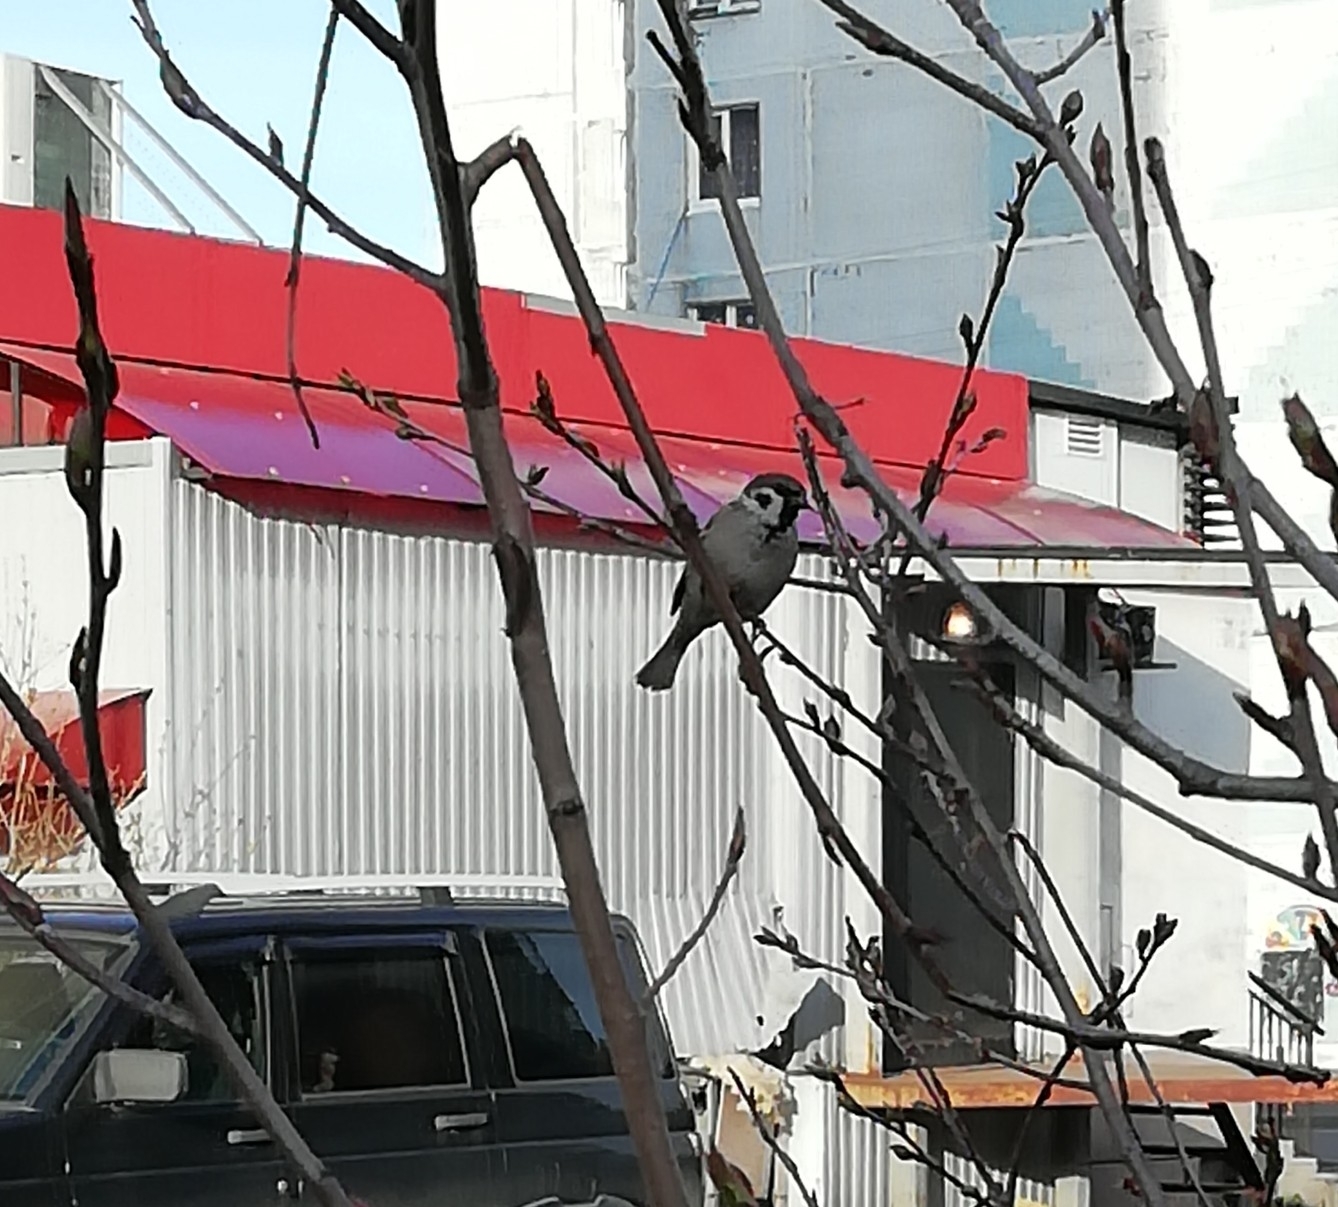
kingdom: Animalia
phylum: Chordata
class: Aves
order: Passeriformes
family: Passeridae
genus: Passer
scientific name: Passer montanus
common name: Eurasian tree sparrow
